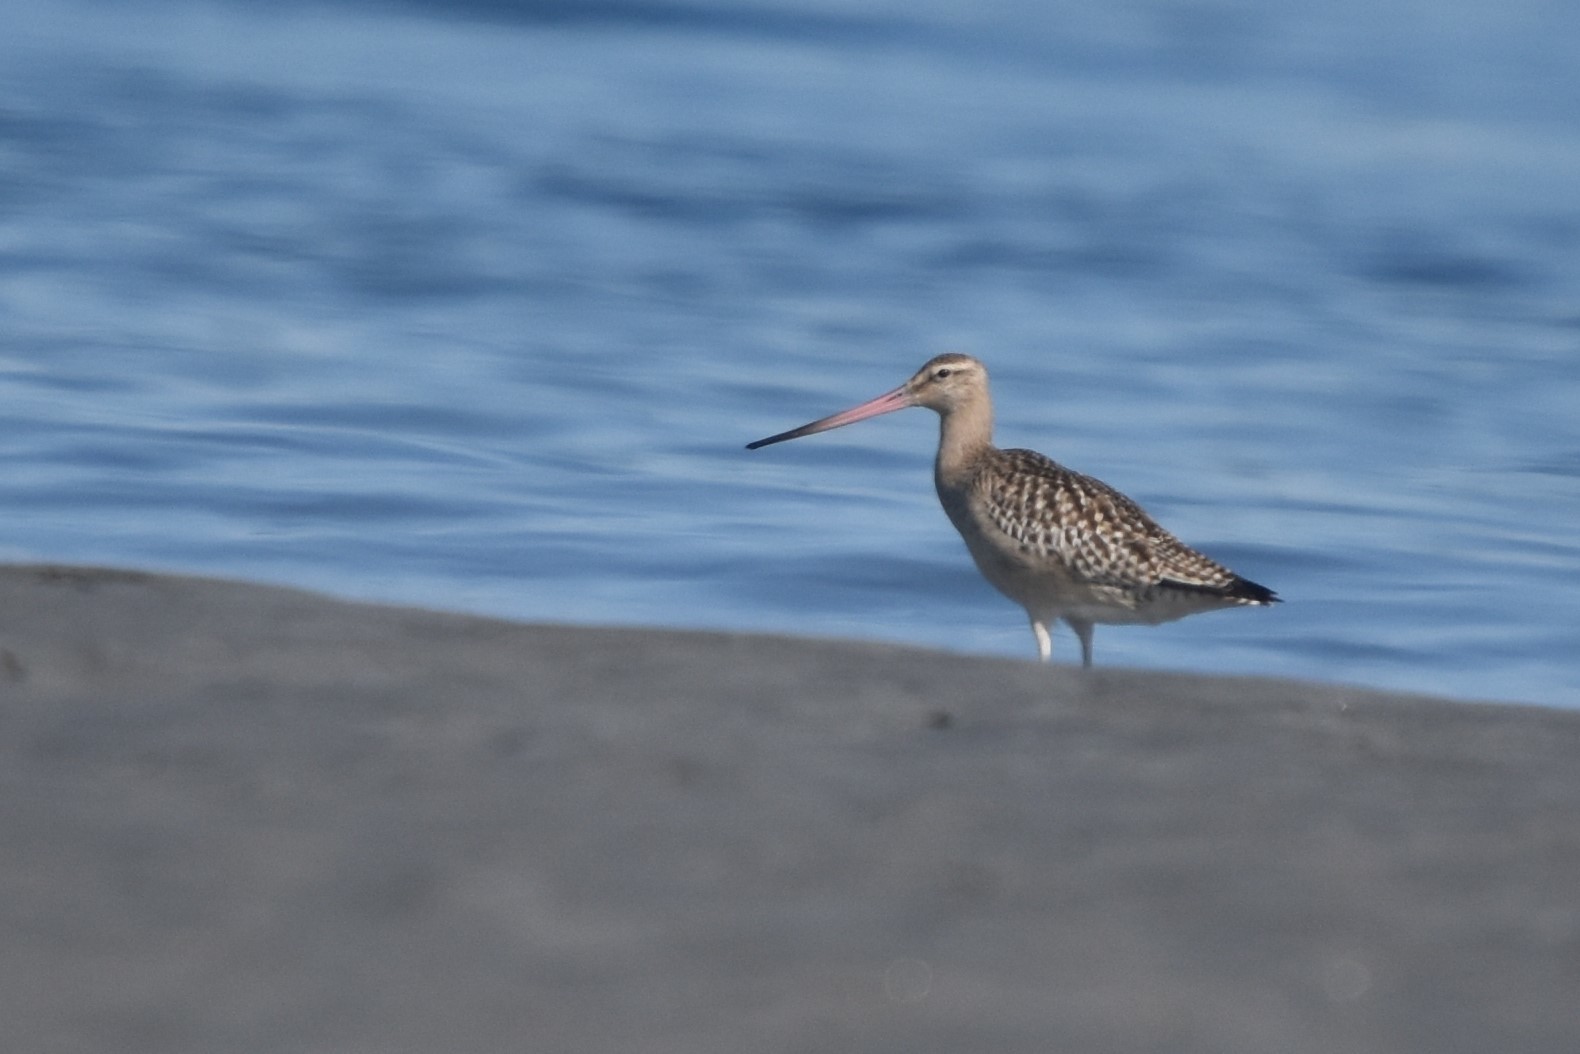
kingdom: Animalia
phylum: Chordata
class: Aves
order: Charadriiformes
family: Scolopacidae
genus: Limosa
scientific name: Limosa lapponica
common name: Bar-tailed godwit
